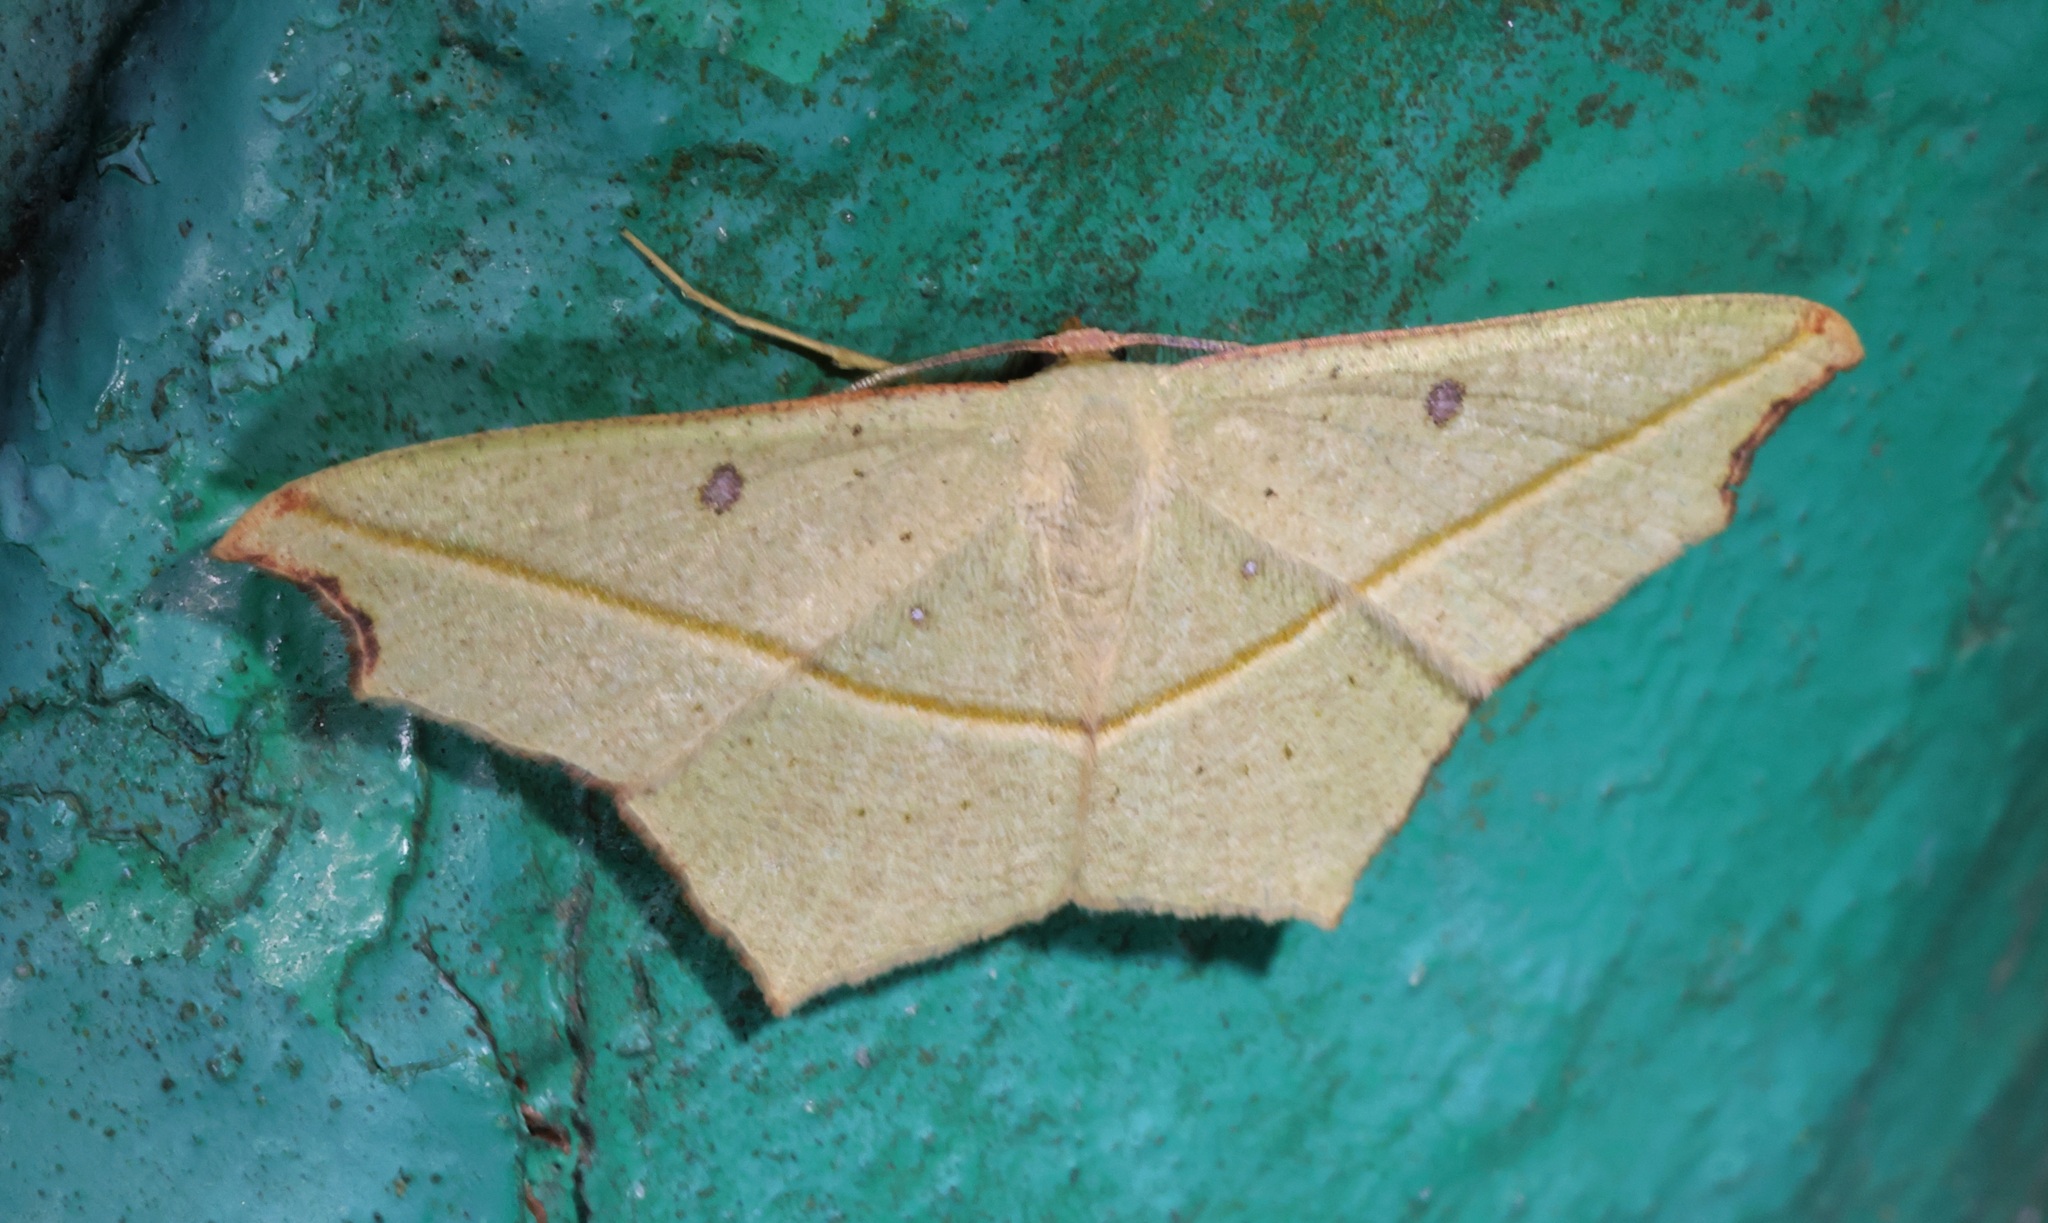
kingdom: Animalia
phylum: Arthropoda
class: Insecta
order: Lepidoptera
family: Geometridae
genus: Traminda
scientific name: Traminda aventiaria
